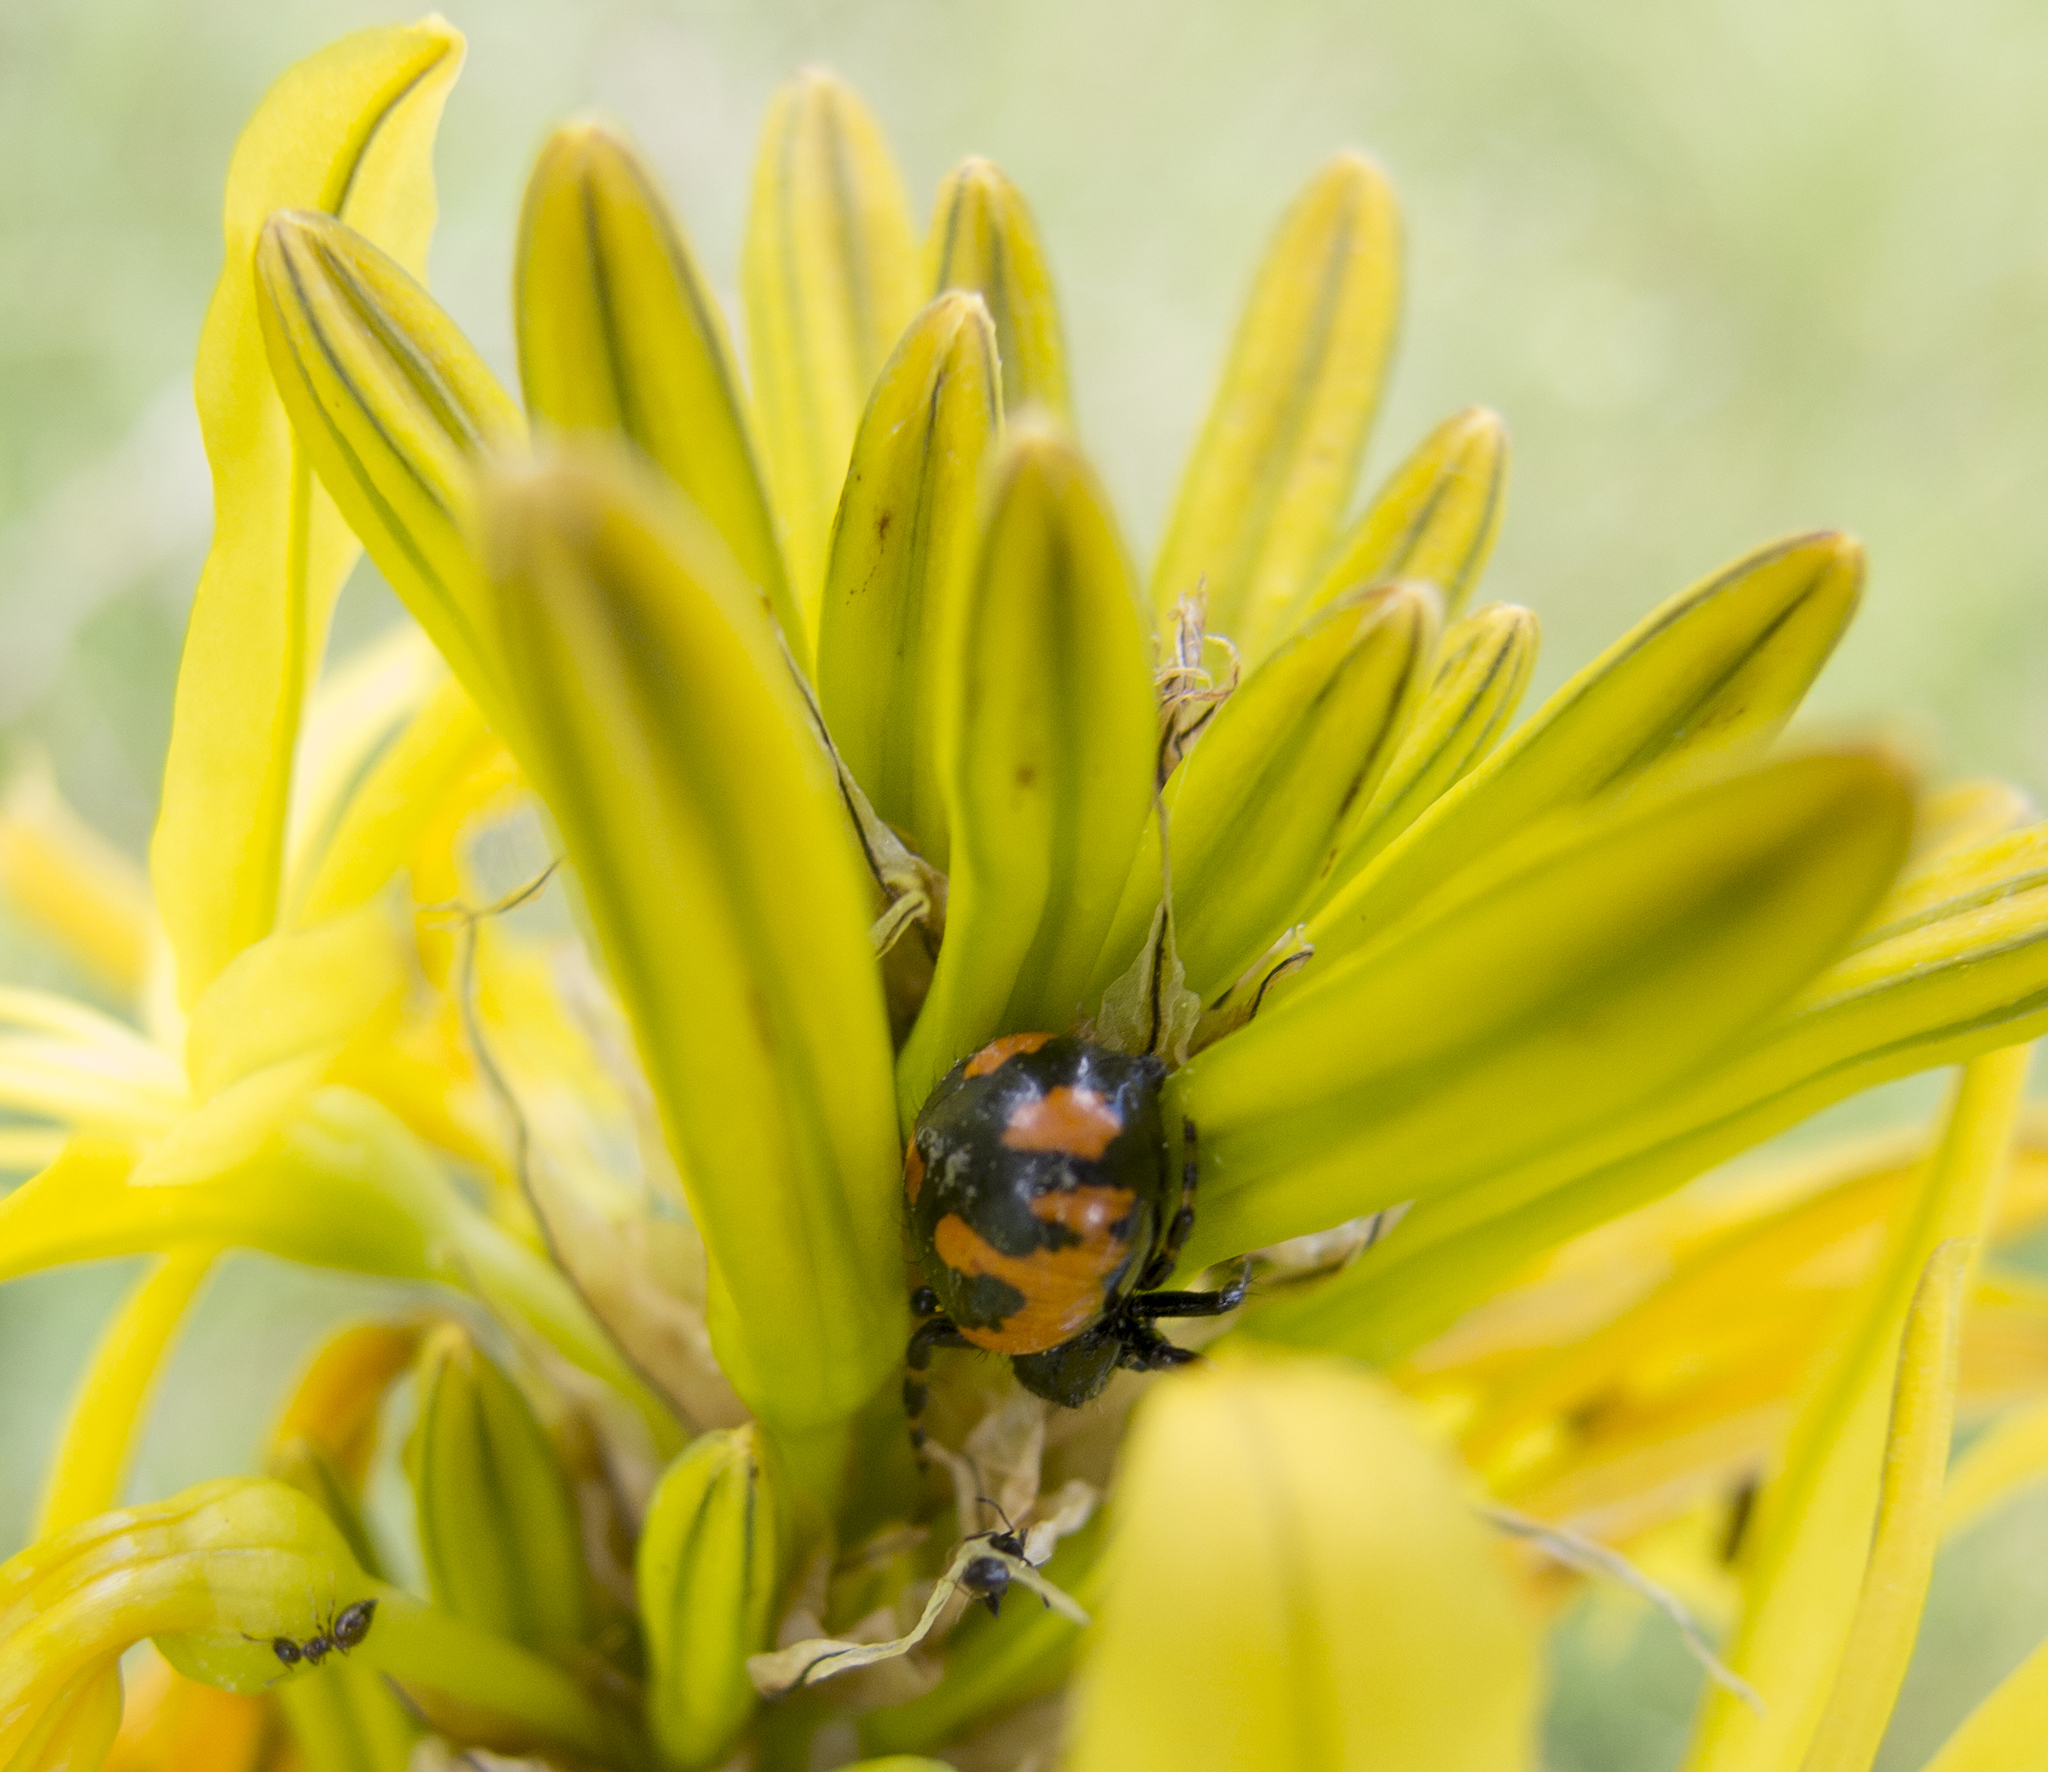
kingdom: Animalia
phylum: Arthropoda
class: Arachnida
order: Araneae
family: Thomisidae
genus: Synema
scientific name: Synema globosum
